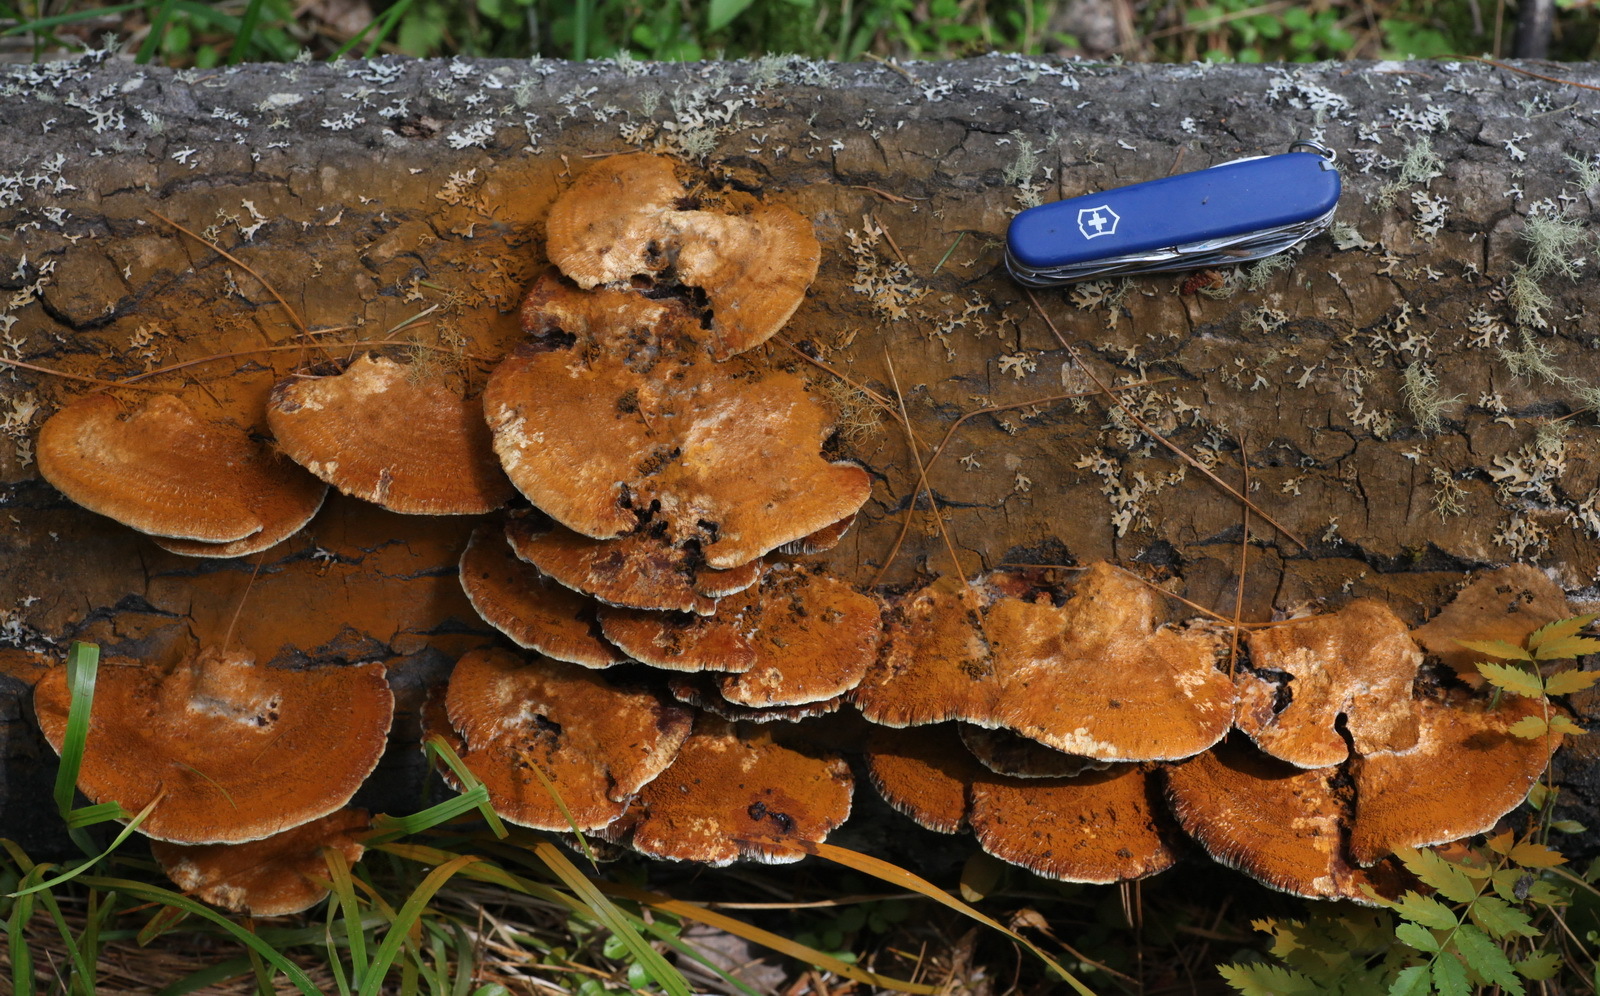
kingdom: Fungi
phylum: Basidiomycota
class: Agaricomycetes
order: Hymenochaetales
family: Hymenochaetaceae
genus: Inocutis
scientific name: Inocutis rheades
